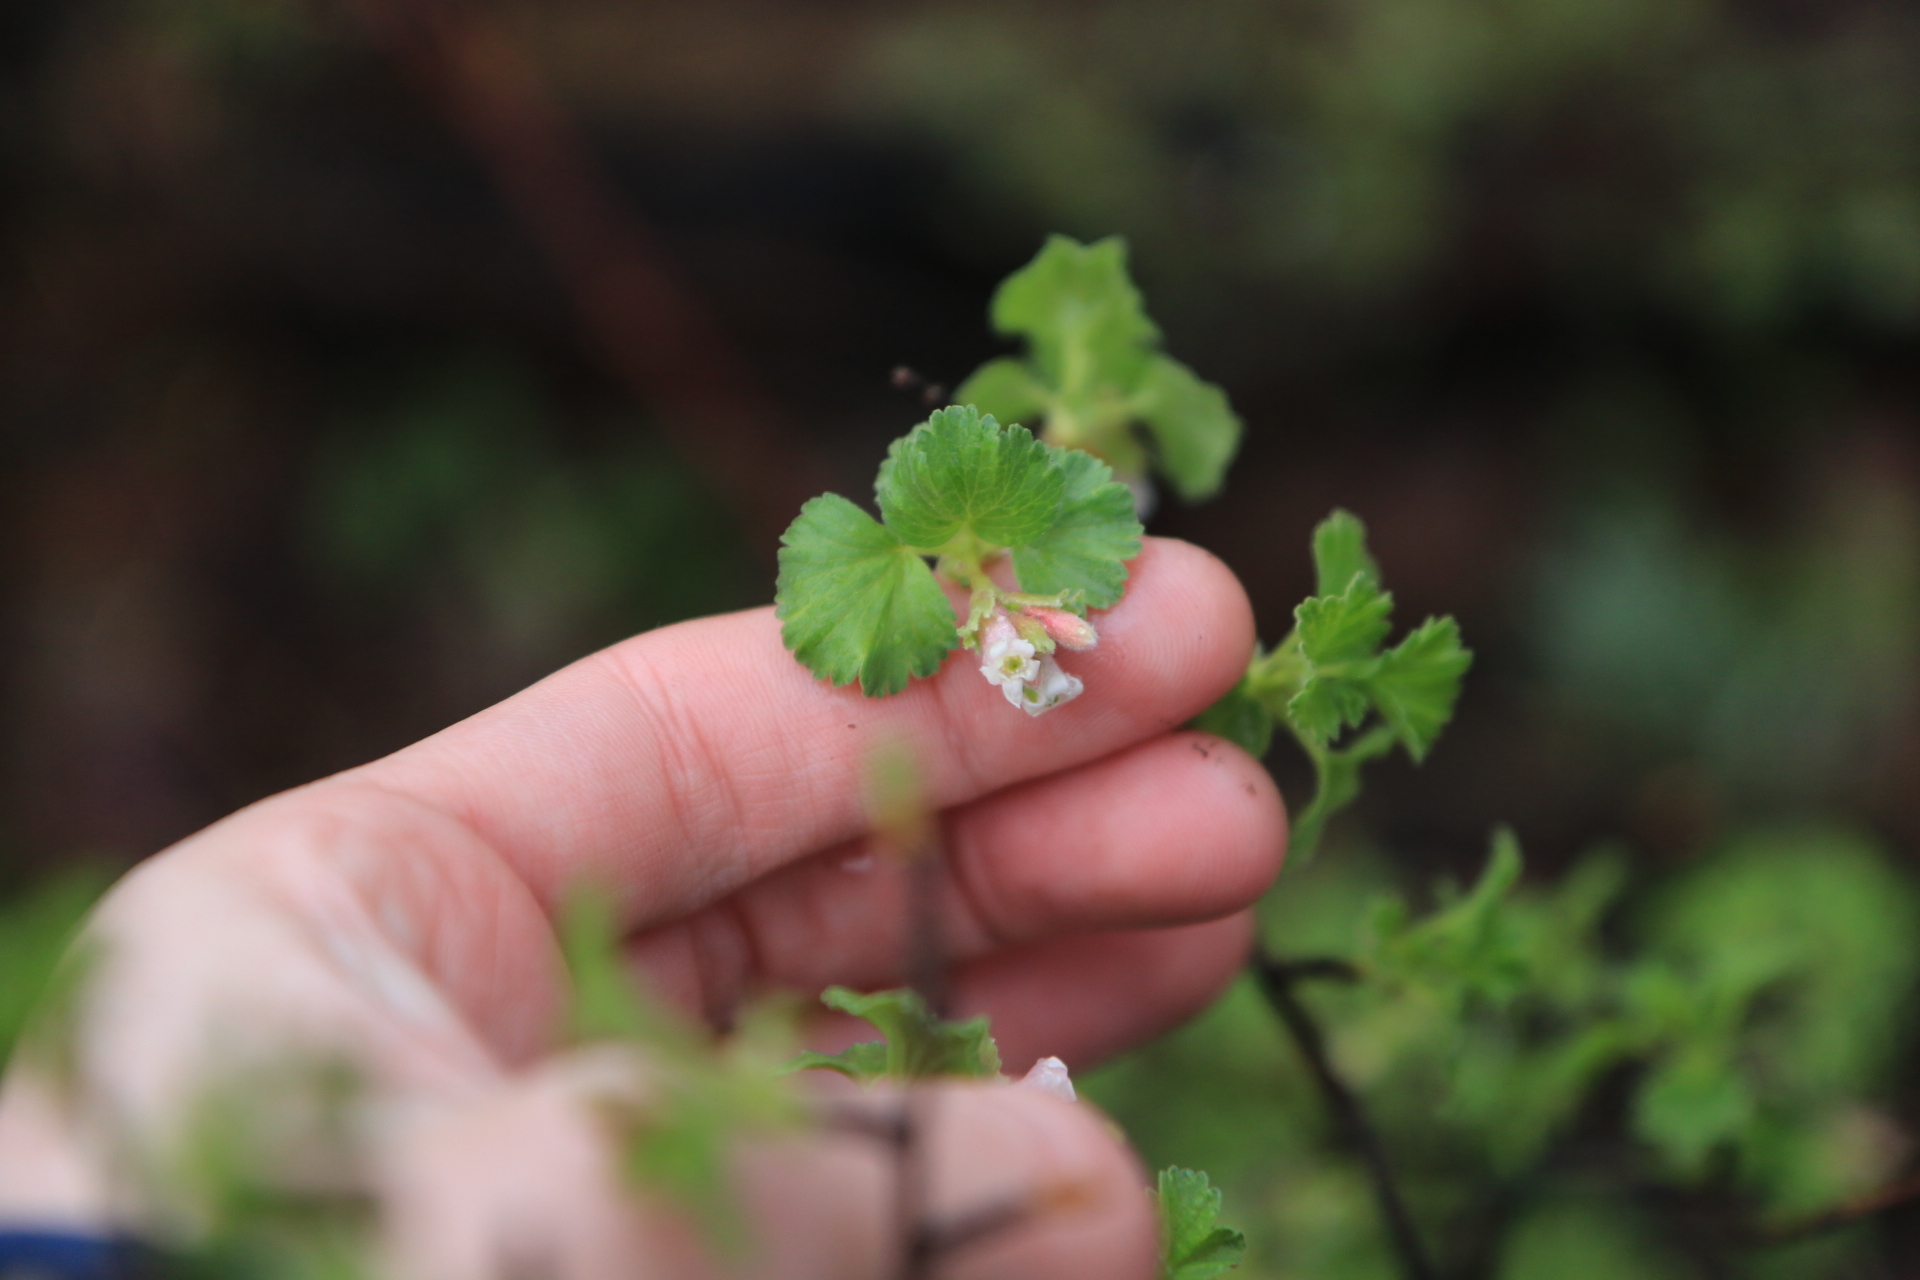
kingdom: Plantae
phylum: Tracheophyta
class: Magnoliopsida
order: Saxifragales
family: Grossulariaceae
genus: Ribes
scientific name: Ribes cereum
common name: Wax currant
